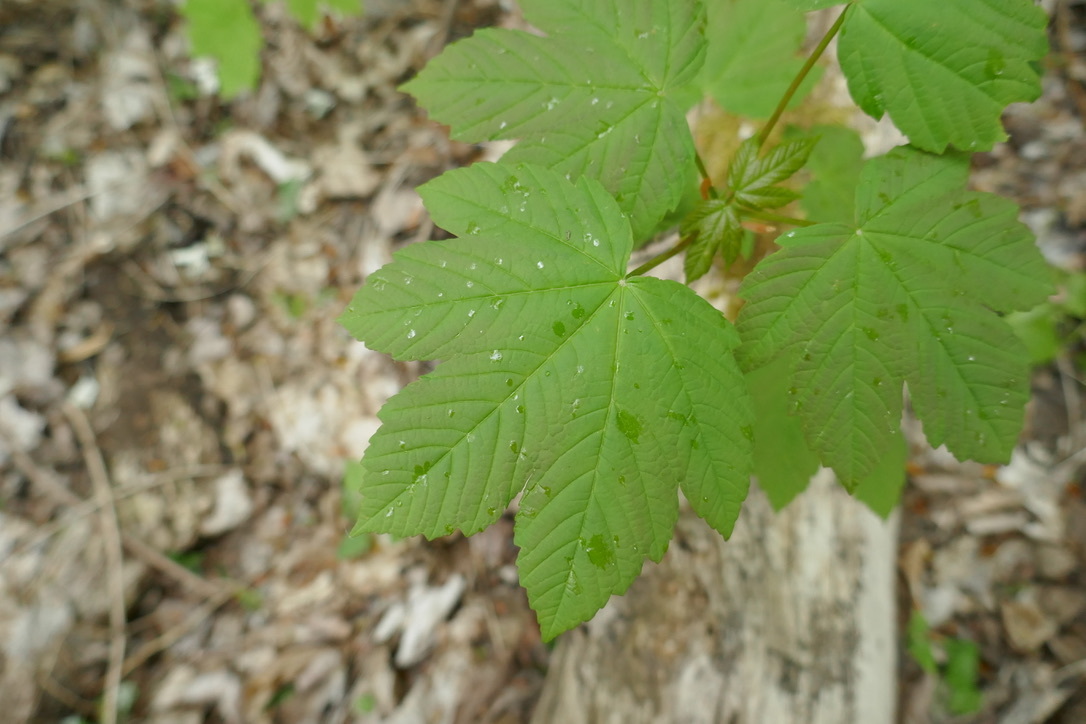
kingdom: Plantae
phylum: Tracheophyta
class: Magnoliopsida
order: Sapindales
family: Sapindaceae
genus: Acer
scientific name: Acer pseudoplatanus
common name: Sycamore
